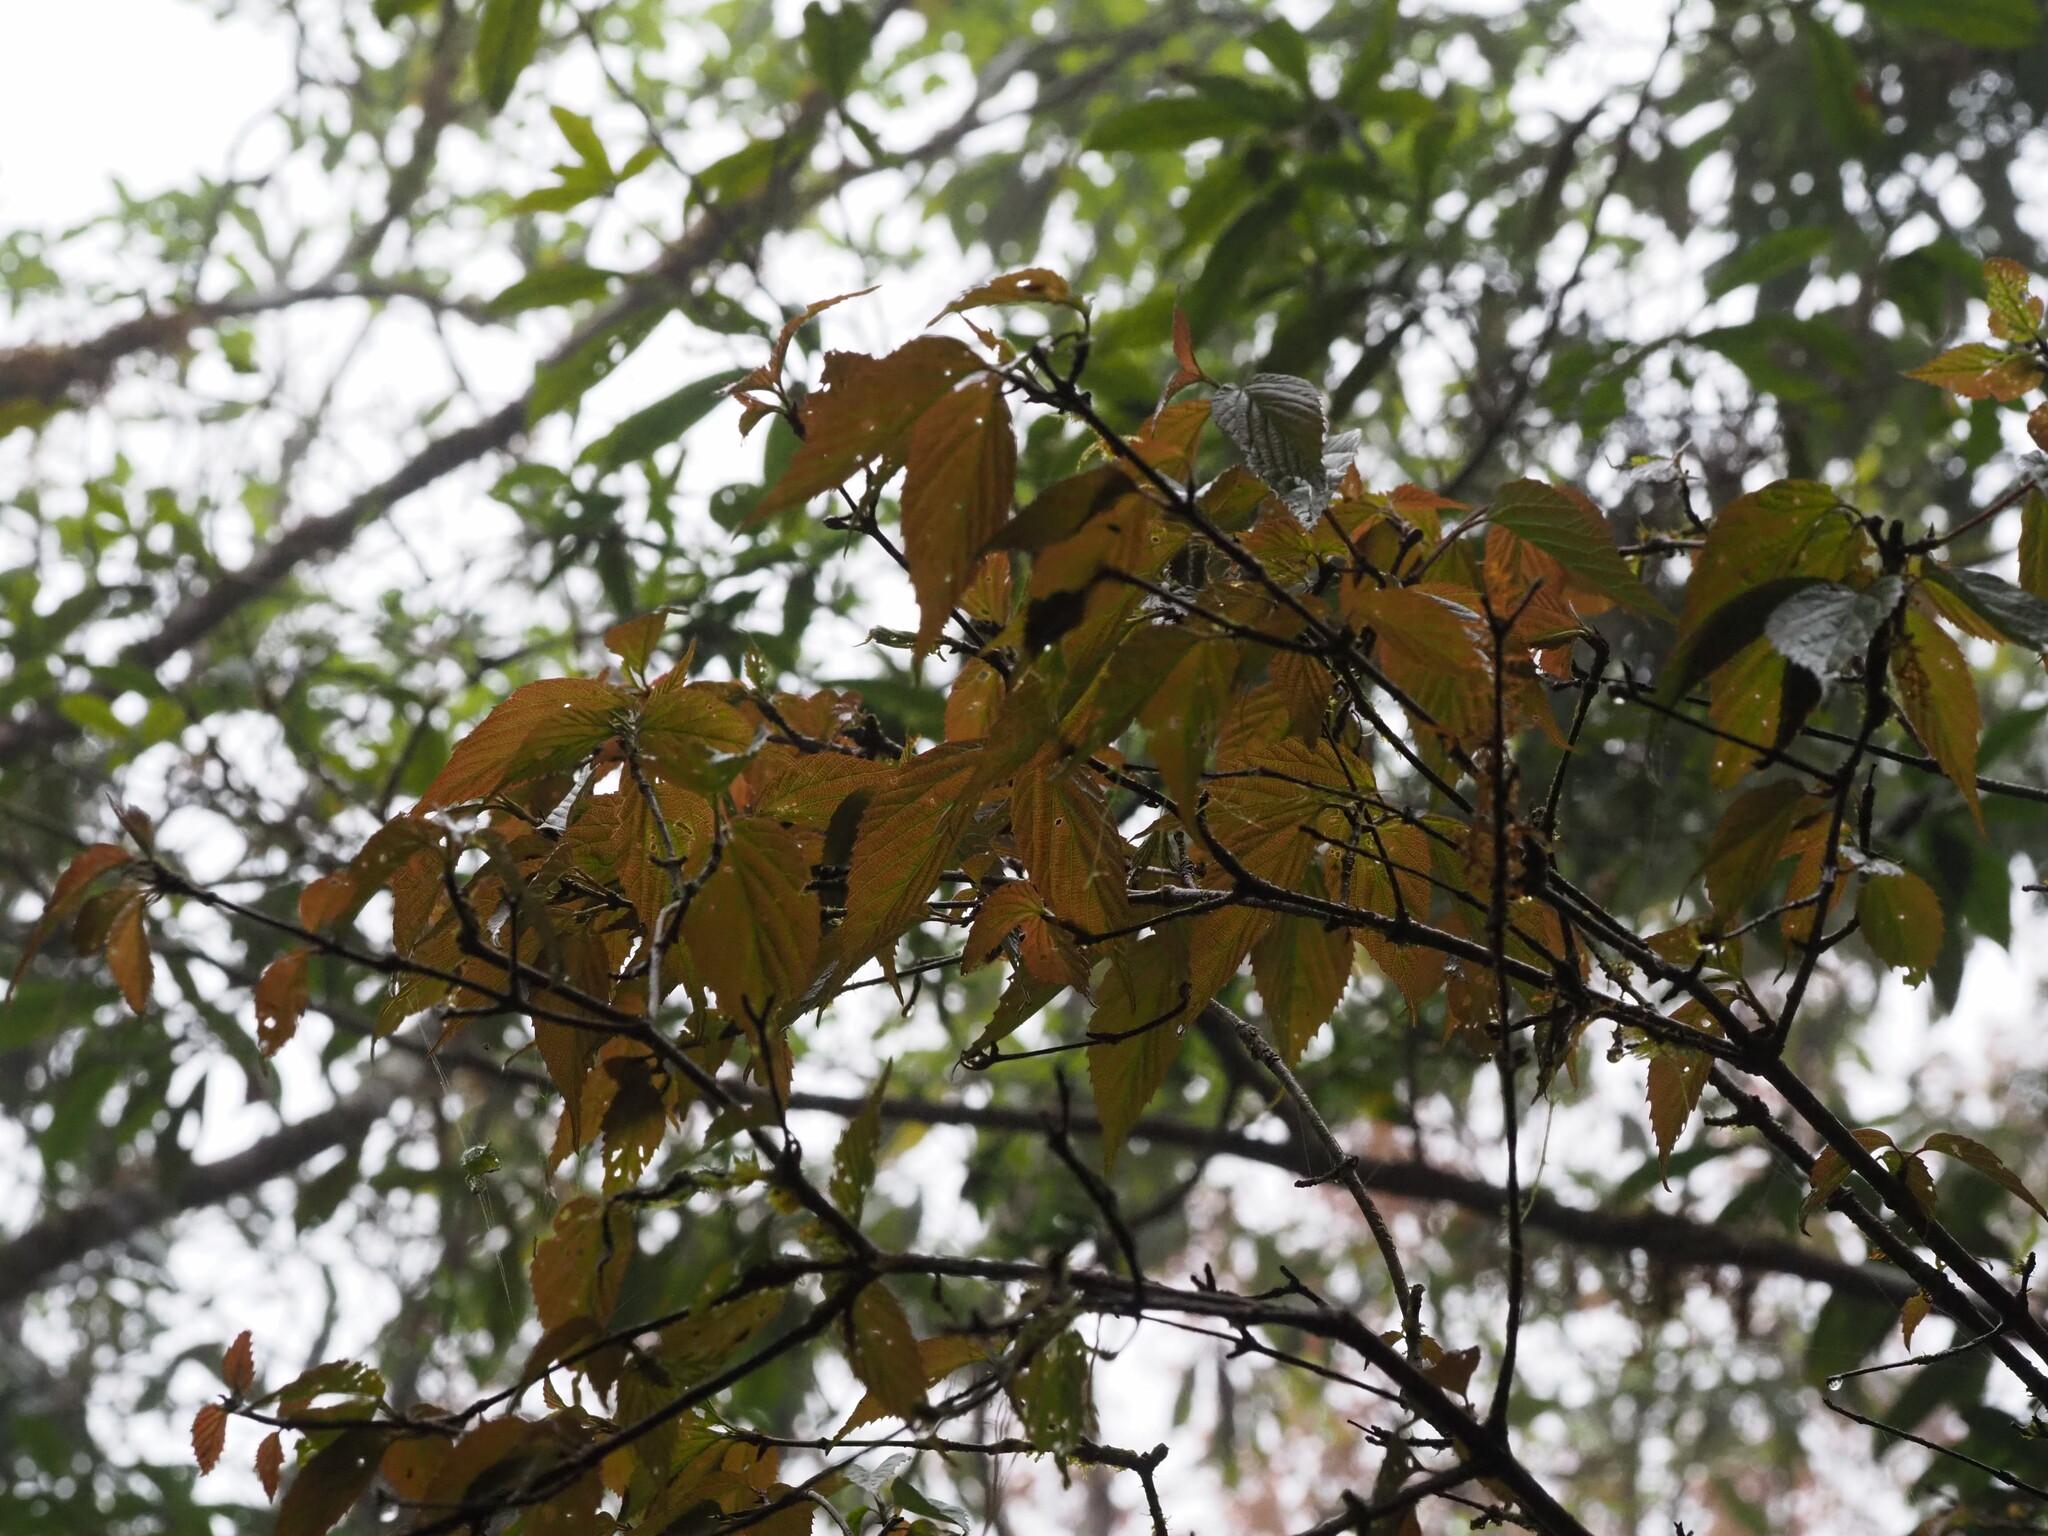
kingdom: Plantae
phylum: Tracheophyta
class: Magnoliopsida
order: Dipsacales
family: Viburnaceae
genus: Viburnum
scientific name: Viburnum luzonicum
